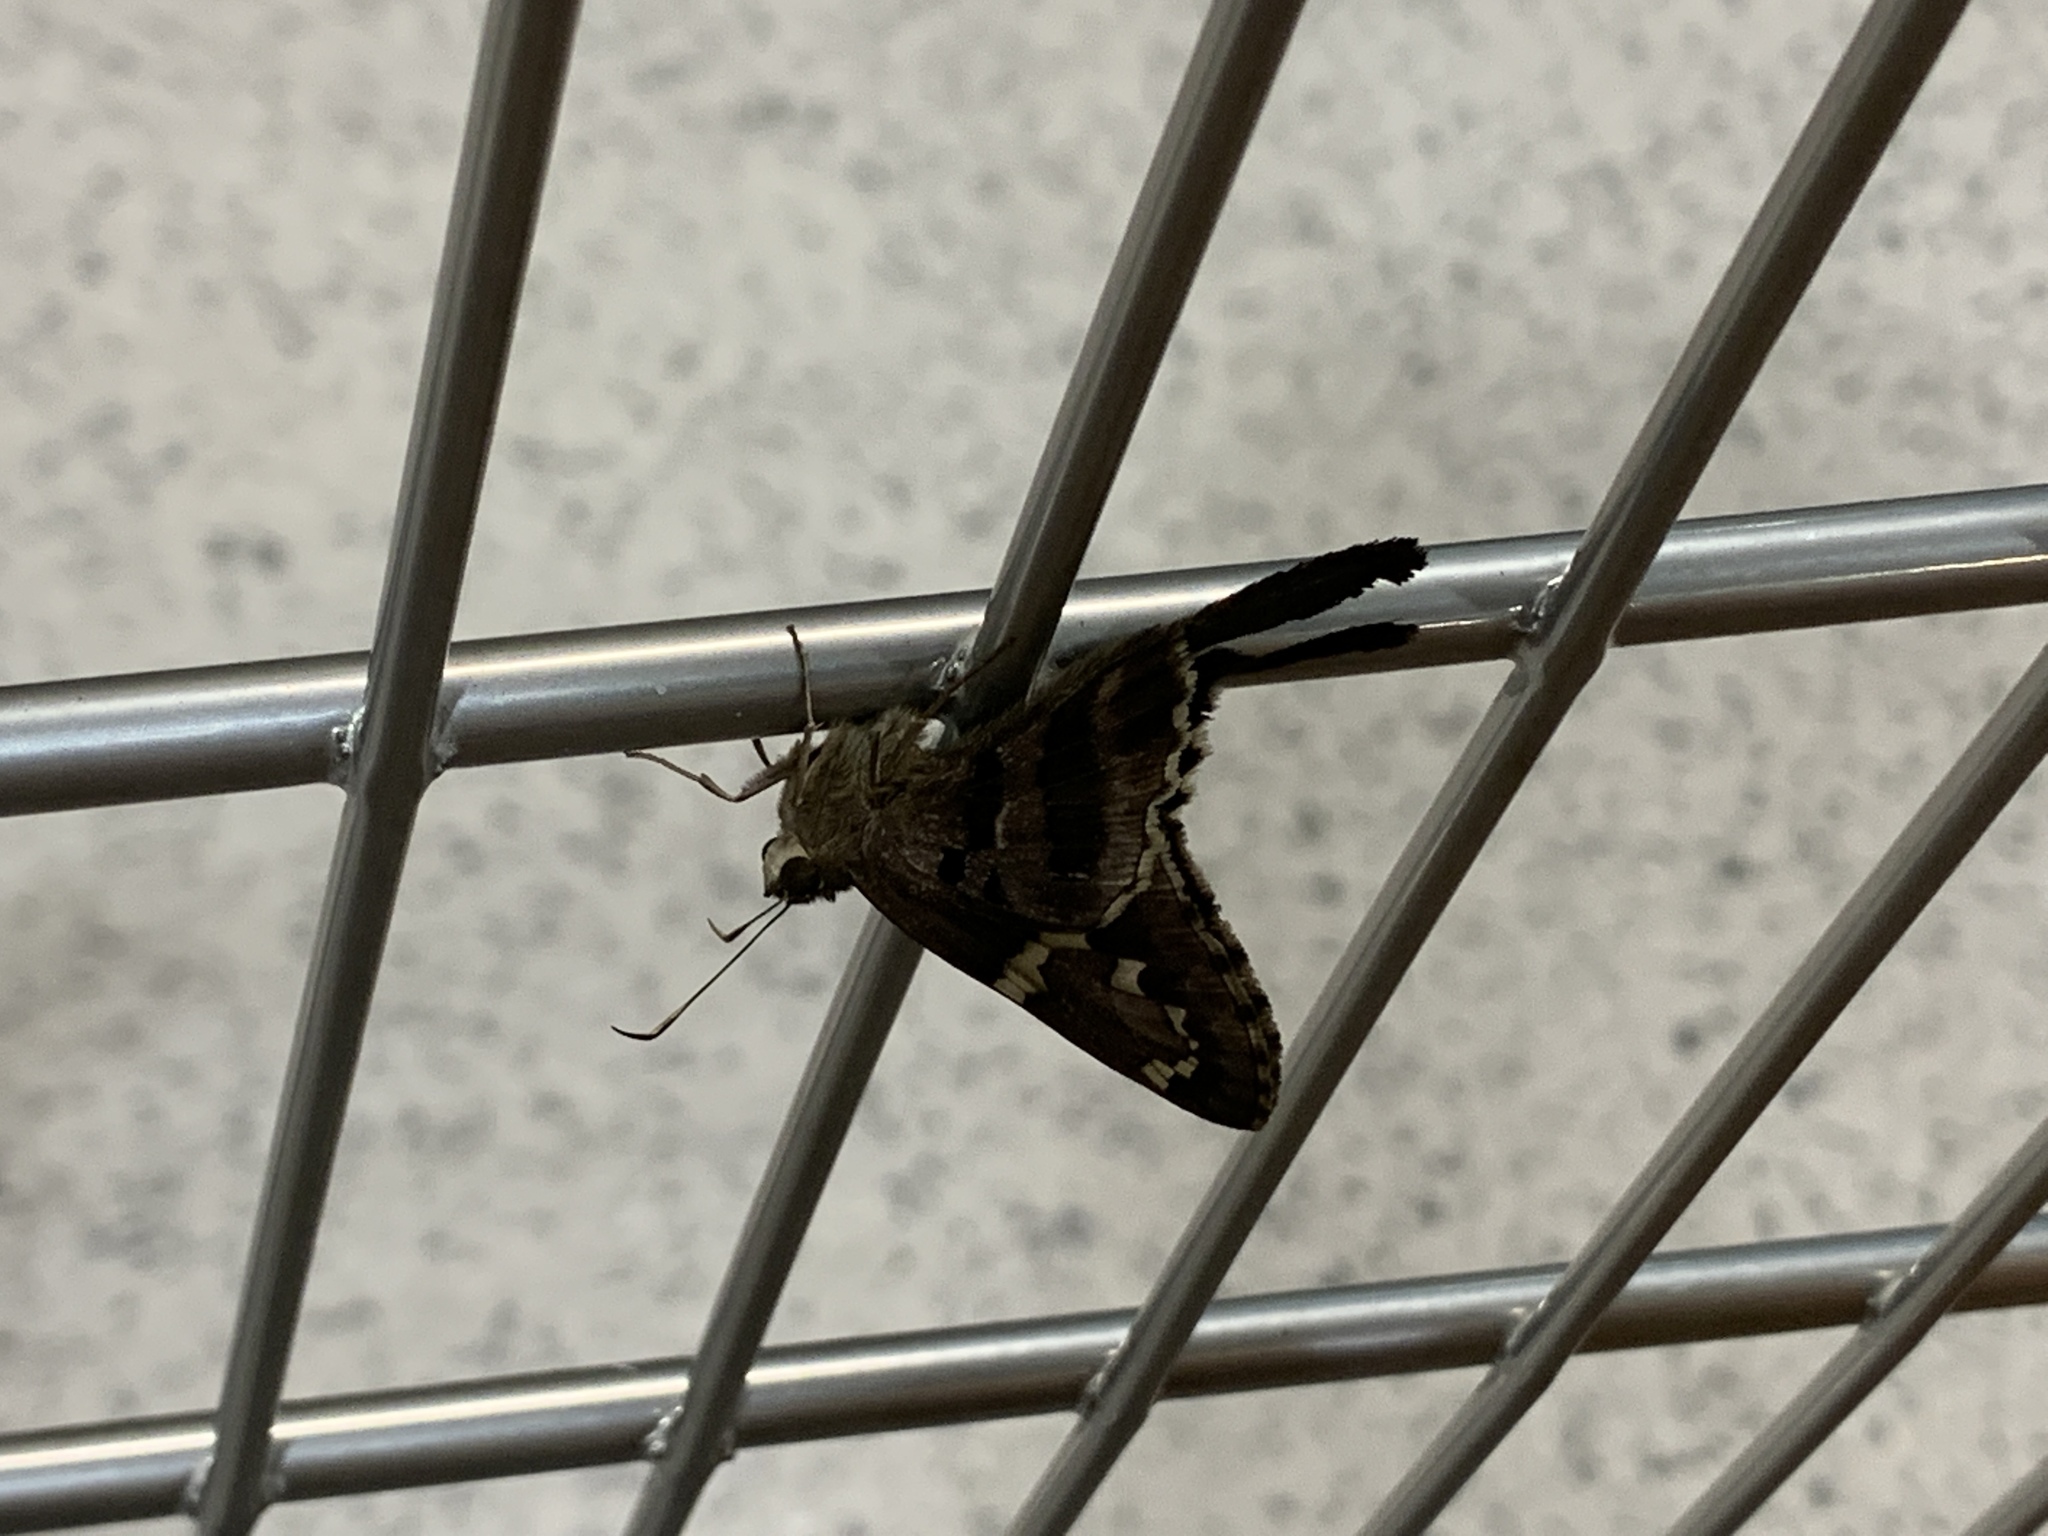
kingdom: Animalia
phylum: Arthropoda
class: Insecta
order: Lepidoptera
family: Hesperiidae
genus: Urbanus
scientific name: Urbanus proteus
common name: Long-tailed skipper
